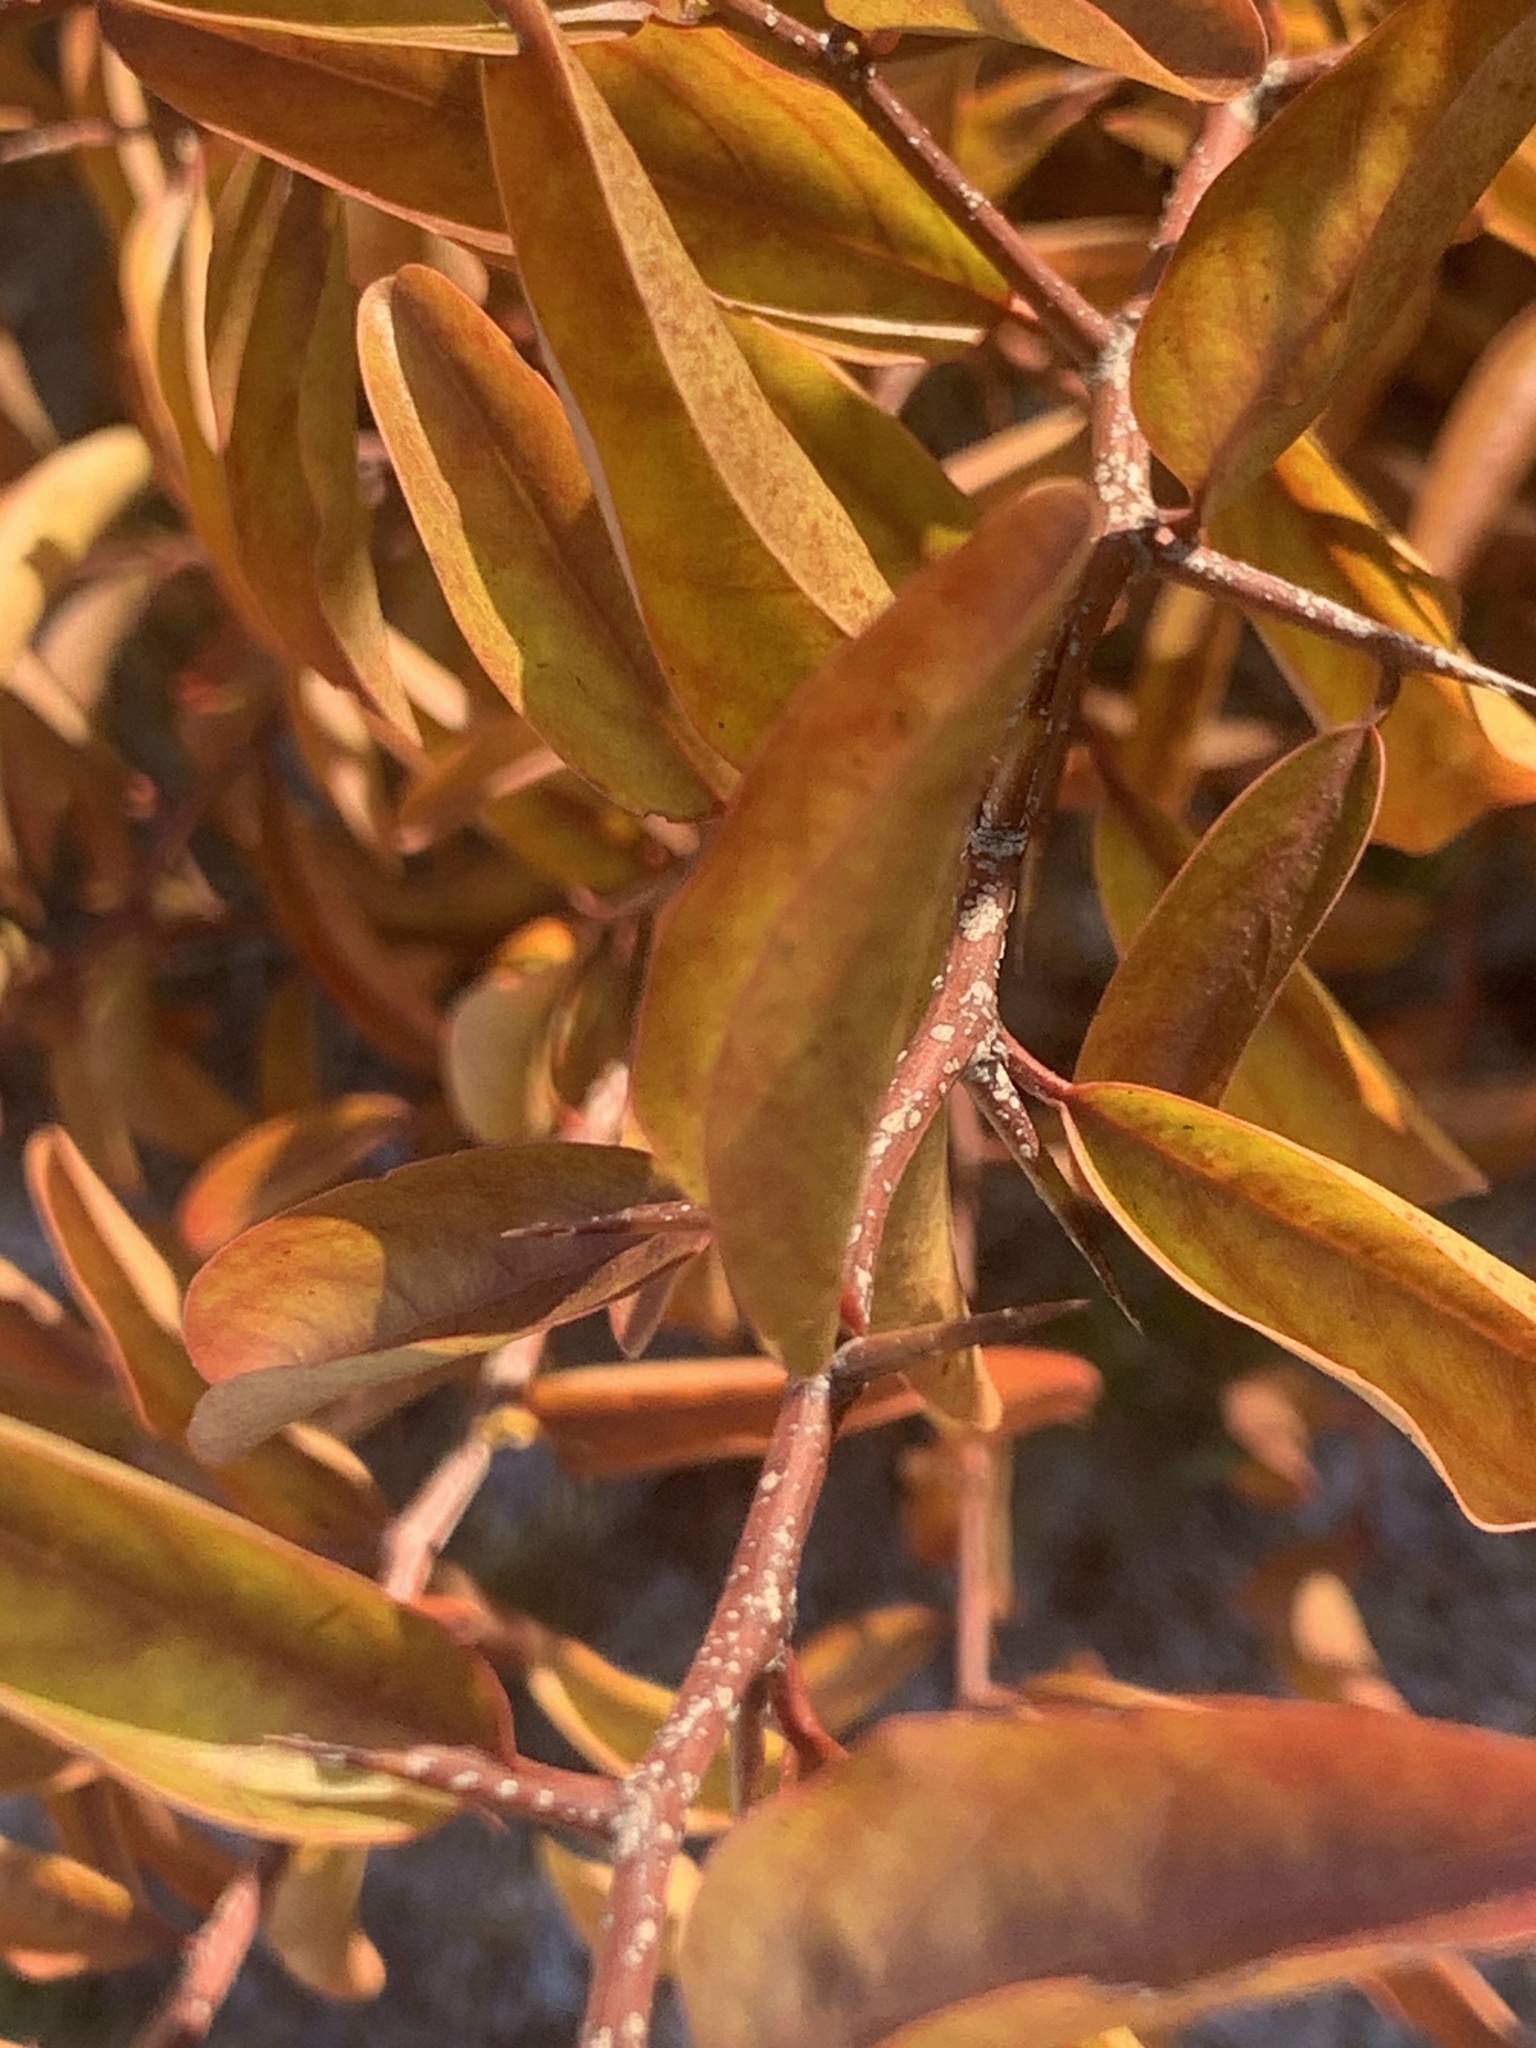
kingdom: Plantae
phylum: Tracheophyta
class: Magnoliopsida
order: Santalales
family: Ximeniaceae
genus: Ximenia
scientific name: Ximenia americana
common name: Tallowwood
